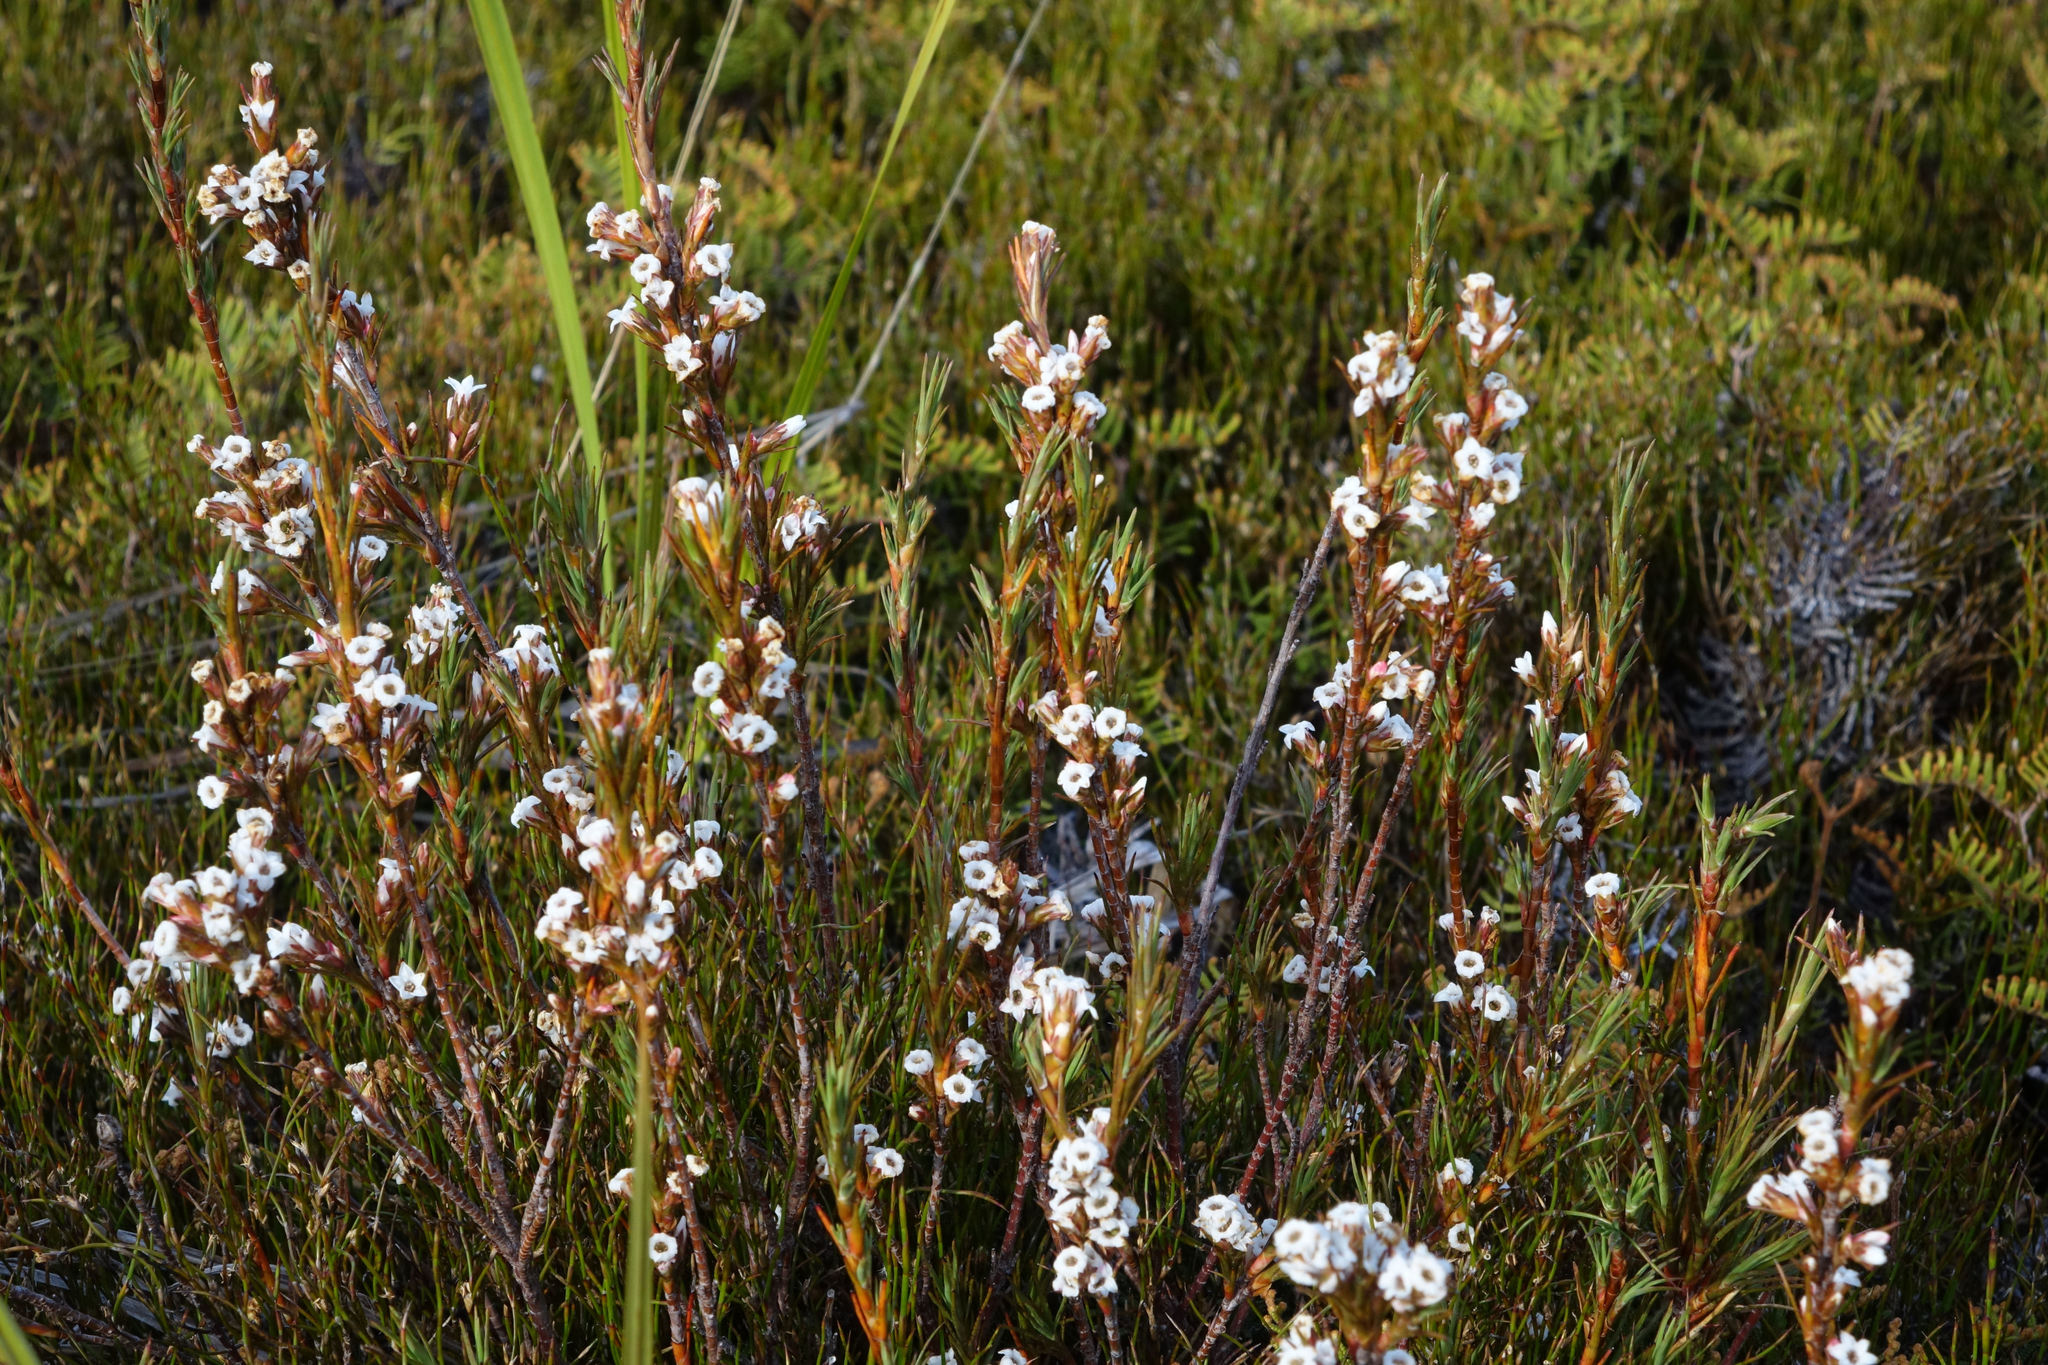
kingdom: Plantae
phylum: Tracheophyta
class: Magnoliopsida
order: Ericales
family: Ericaceae
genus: Dracophyllum
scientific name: Dracophyllum oliveri
